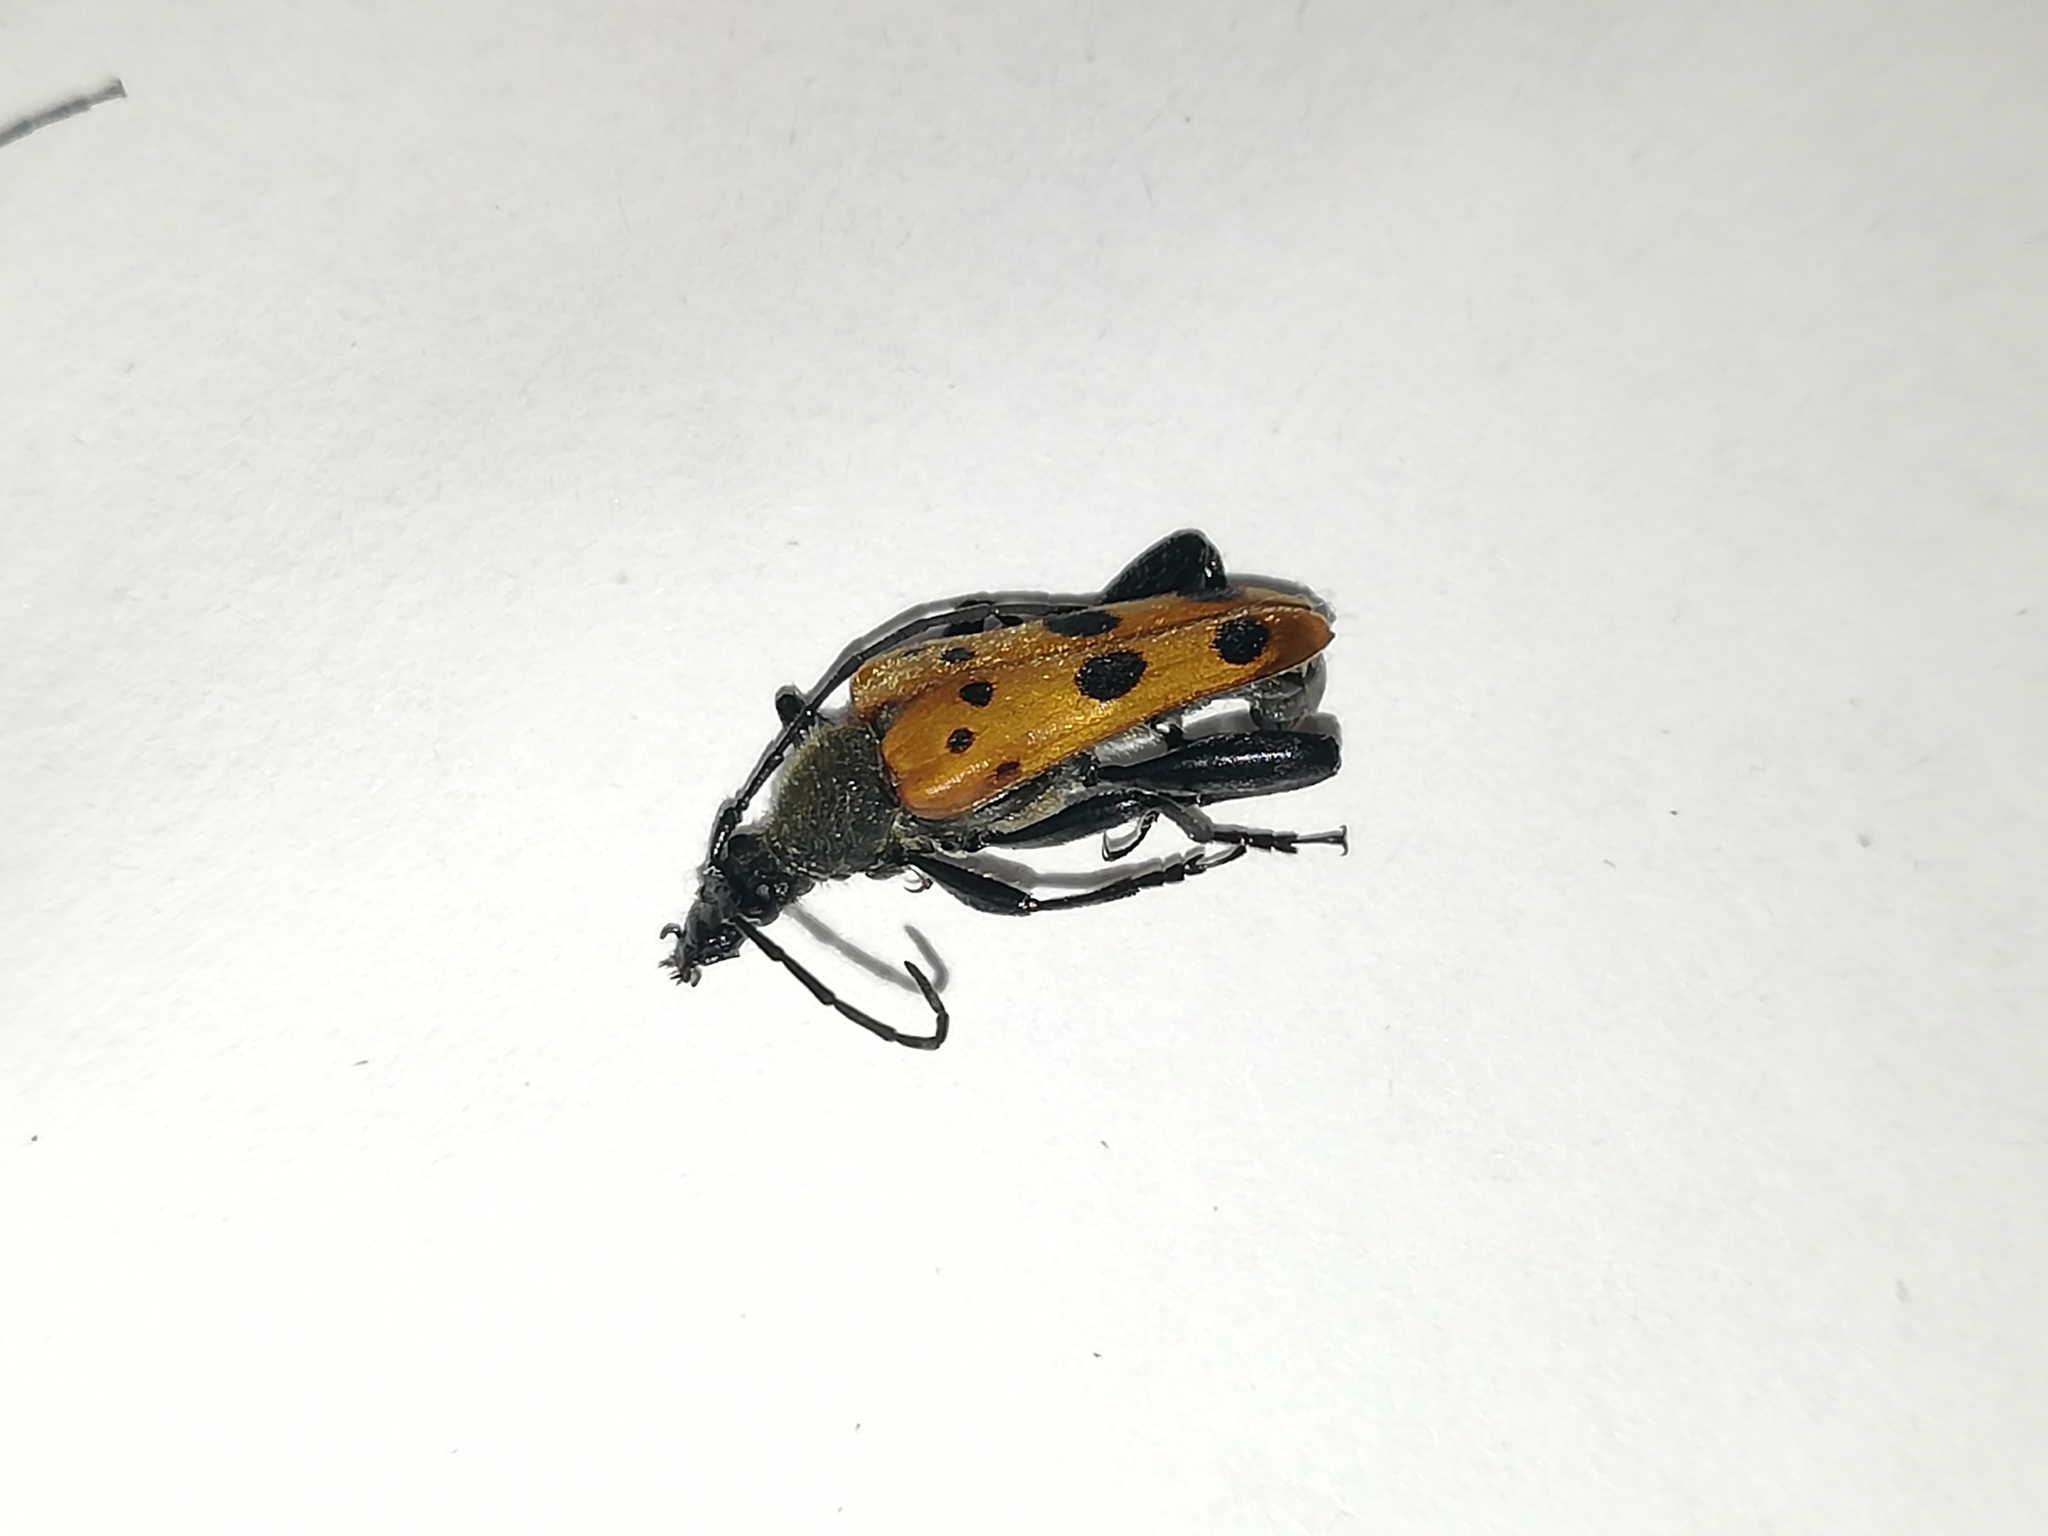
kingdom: Animalia
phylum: Arthropoda
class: Insecta
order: Coleoptera
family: Cerambycidae
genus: Oedecnema
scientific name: Oedecnema gebleri
